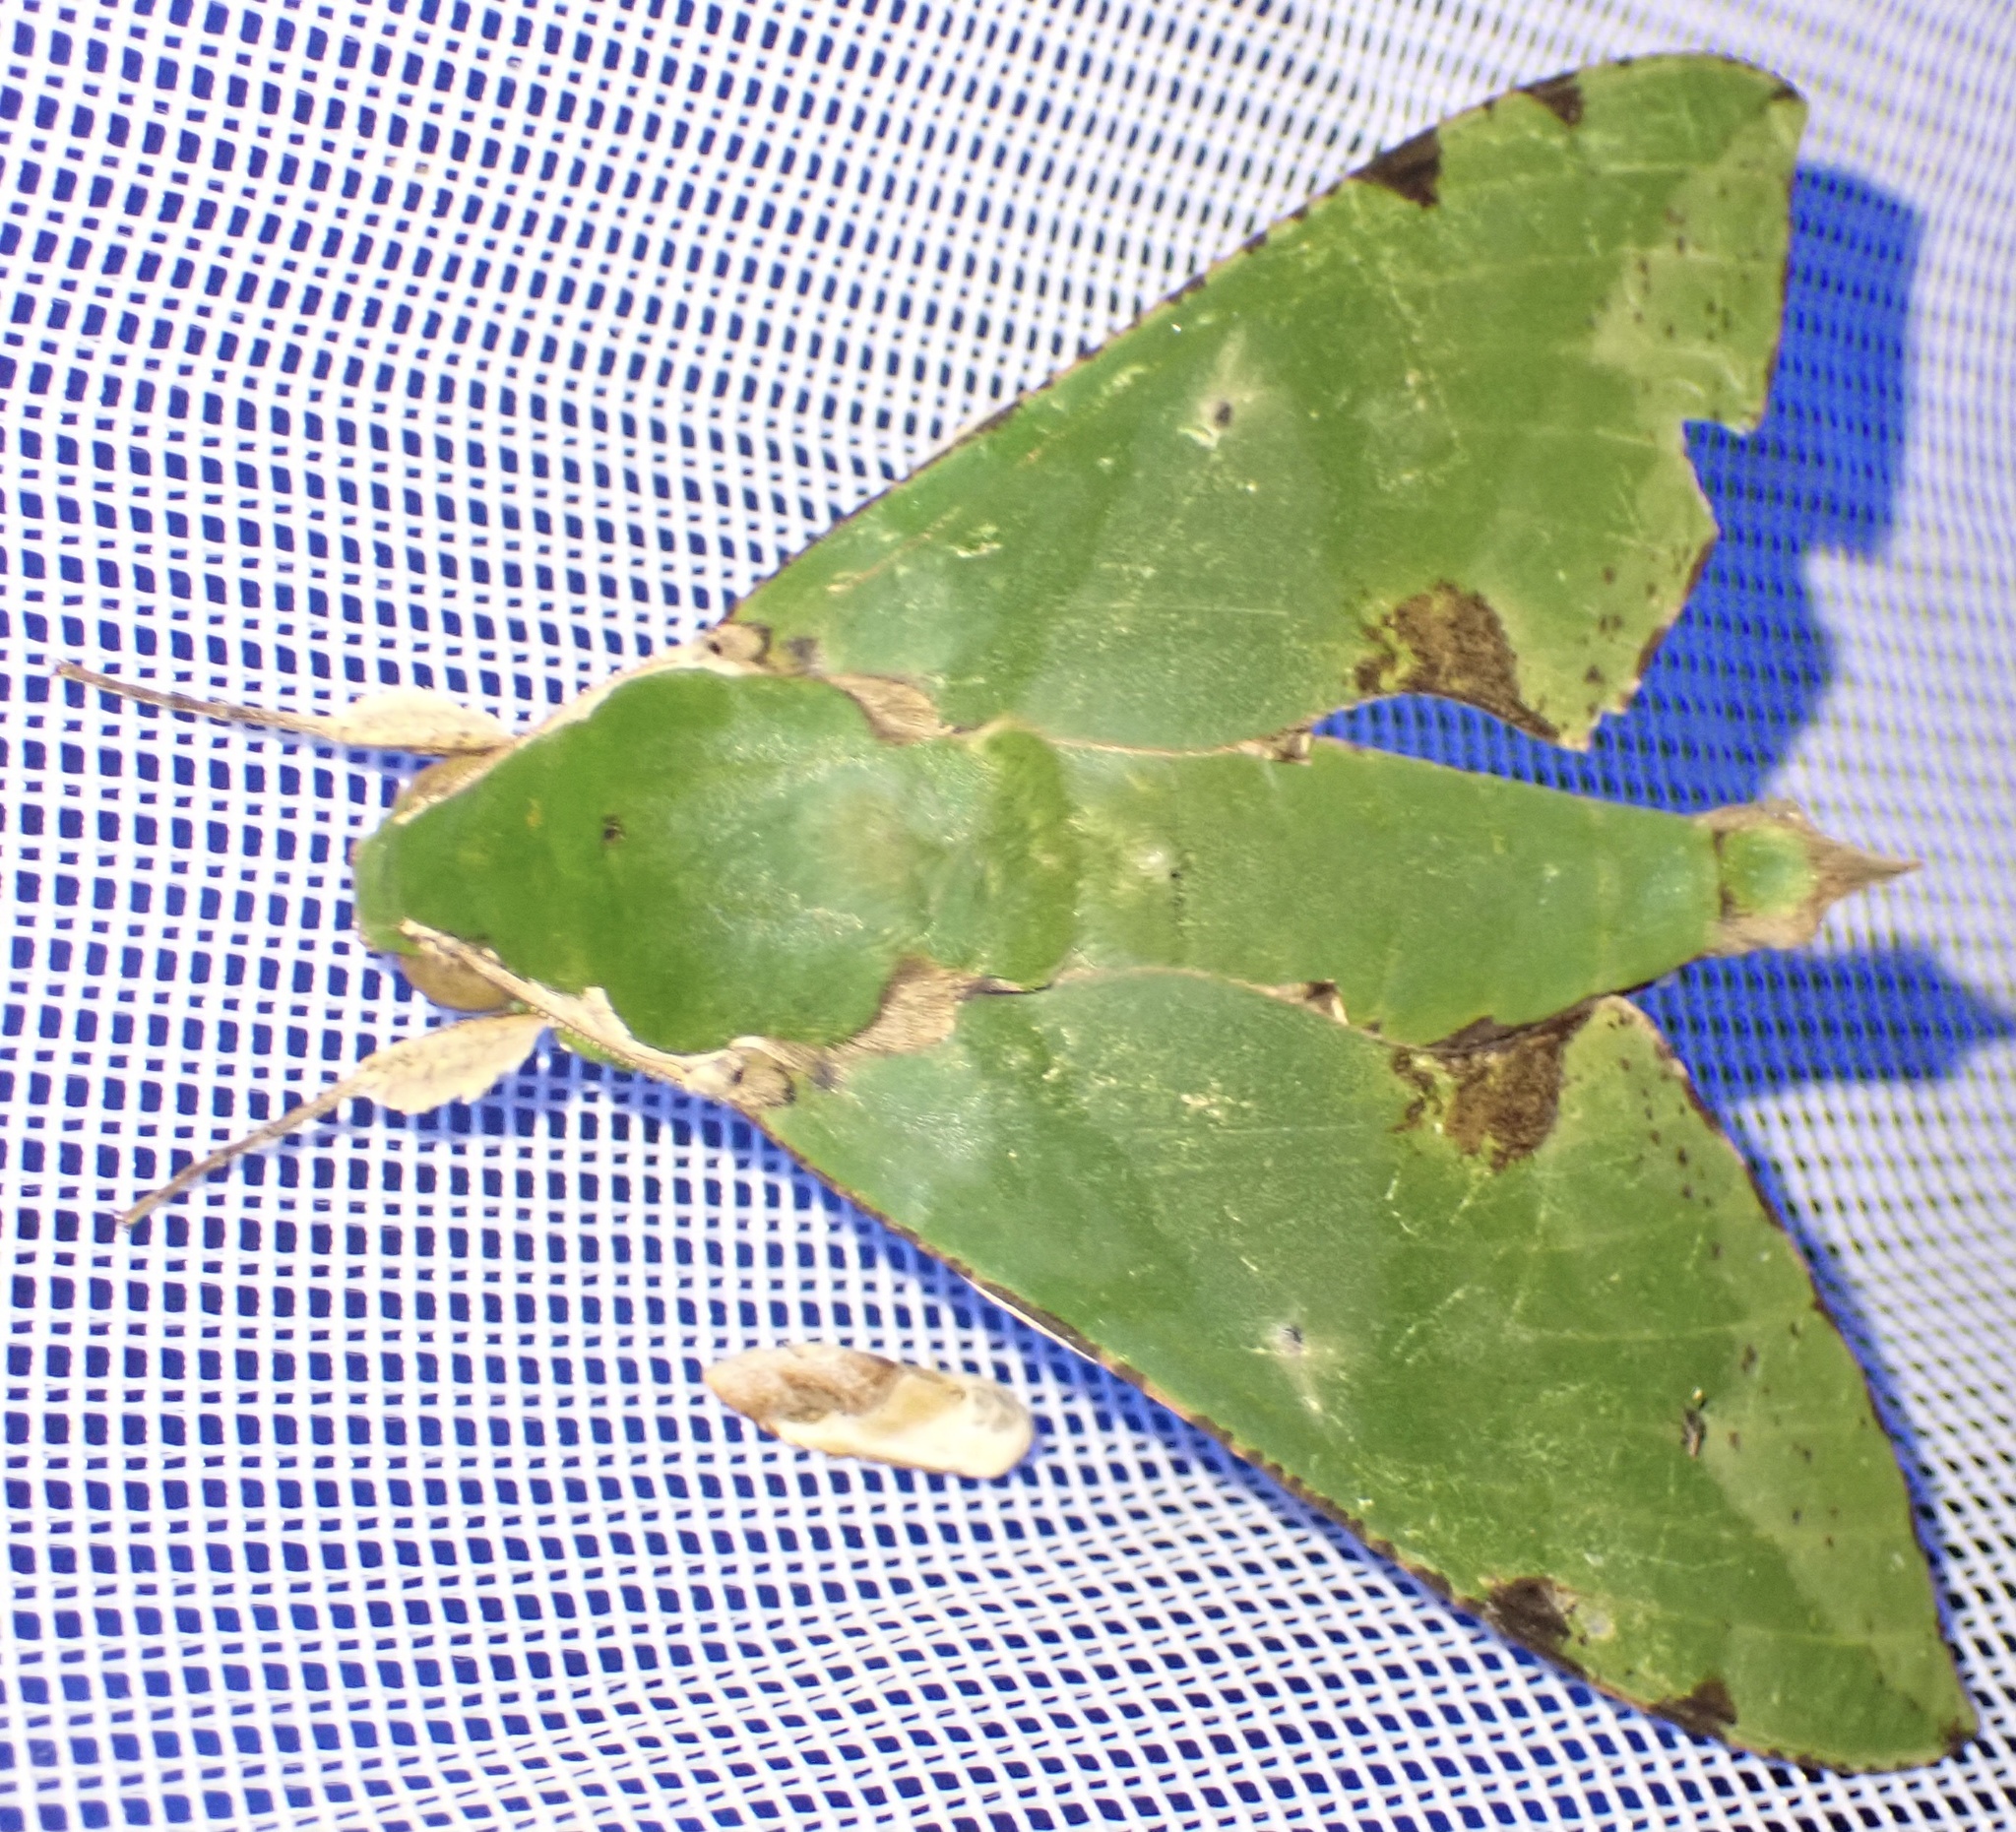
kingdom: Animalia
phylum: Arthropoda
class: Insecta
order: Lepidoptera
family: Sphingidae
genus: Euchloron
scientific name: Euchloron megaera
